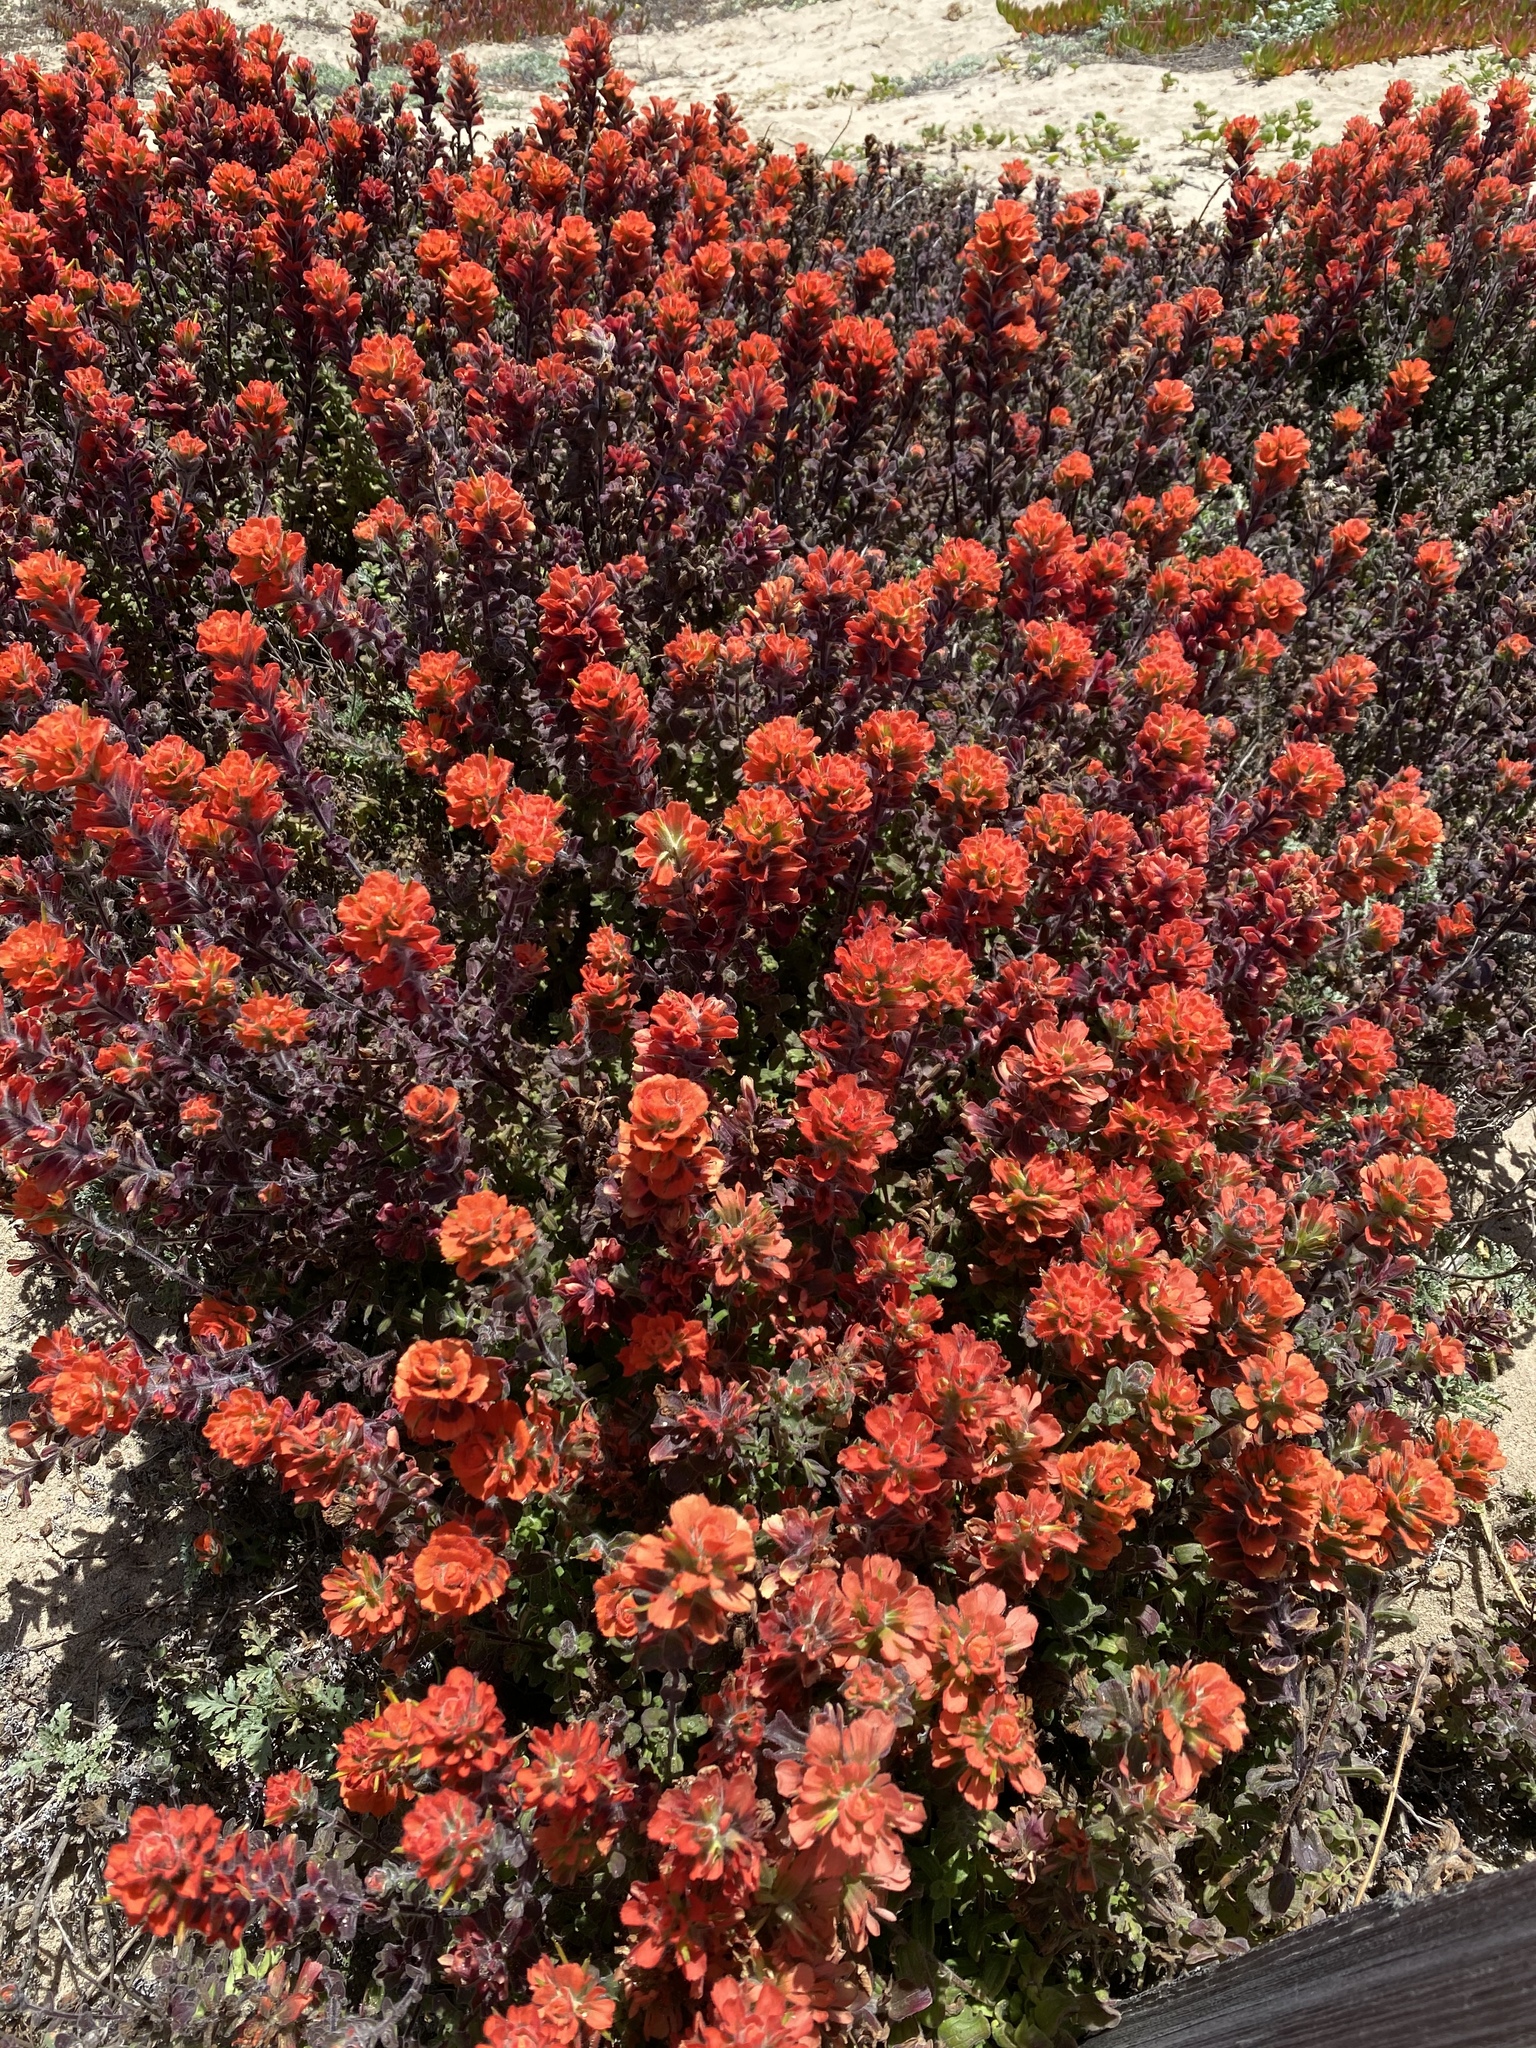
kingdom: Plantae
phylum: Tracheophyta
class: Magnoliopsida
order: Lamiales
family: Orobanchaceae
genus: Castilleja
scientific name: Castilleja latifolia
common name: Monterey indian paintbrush
